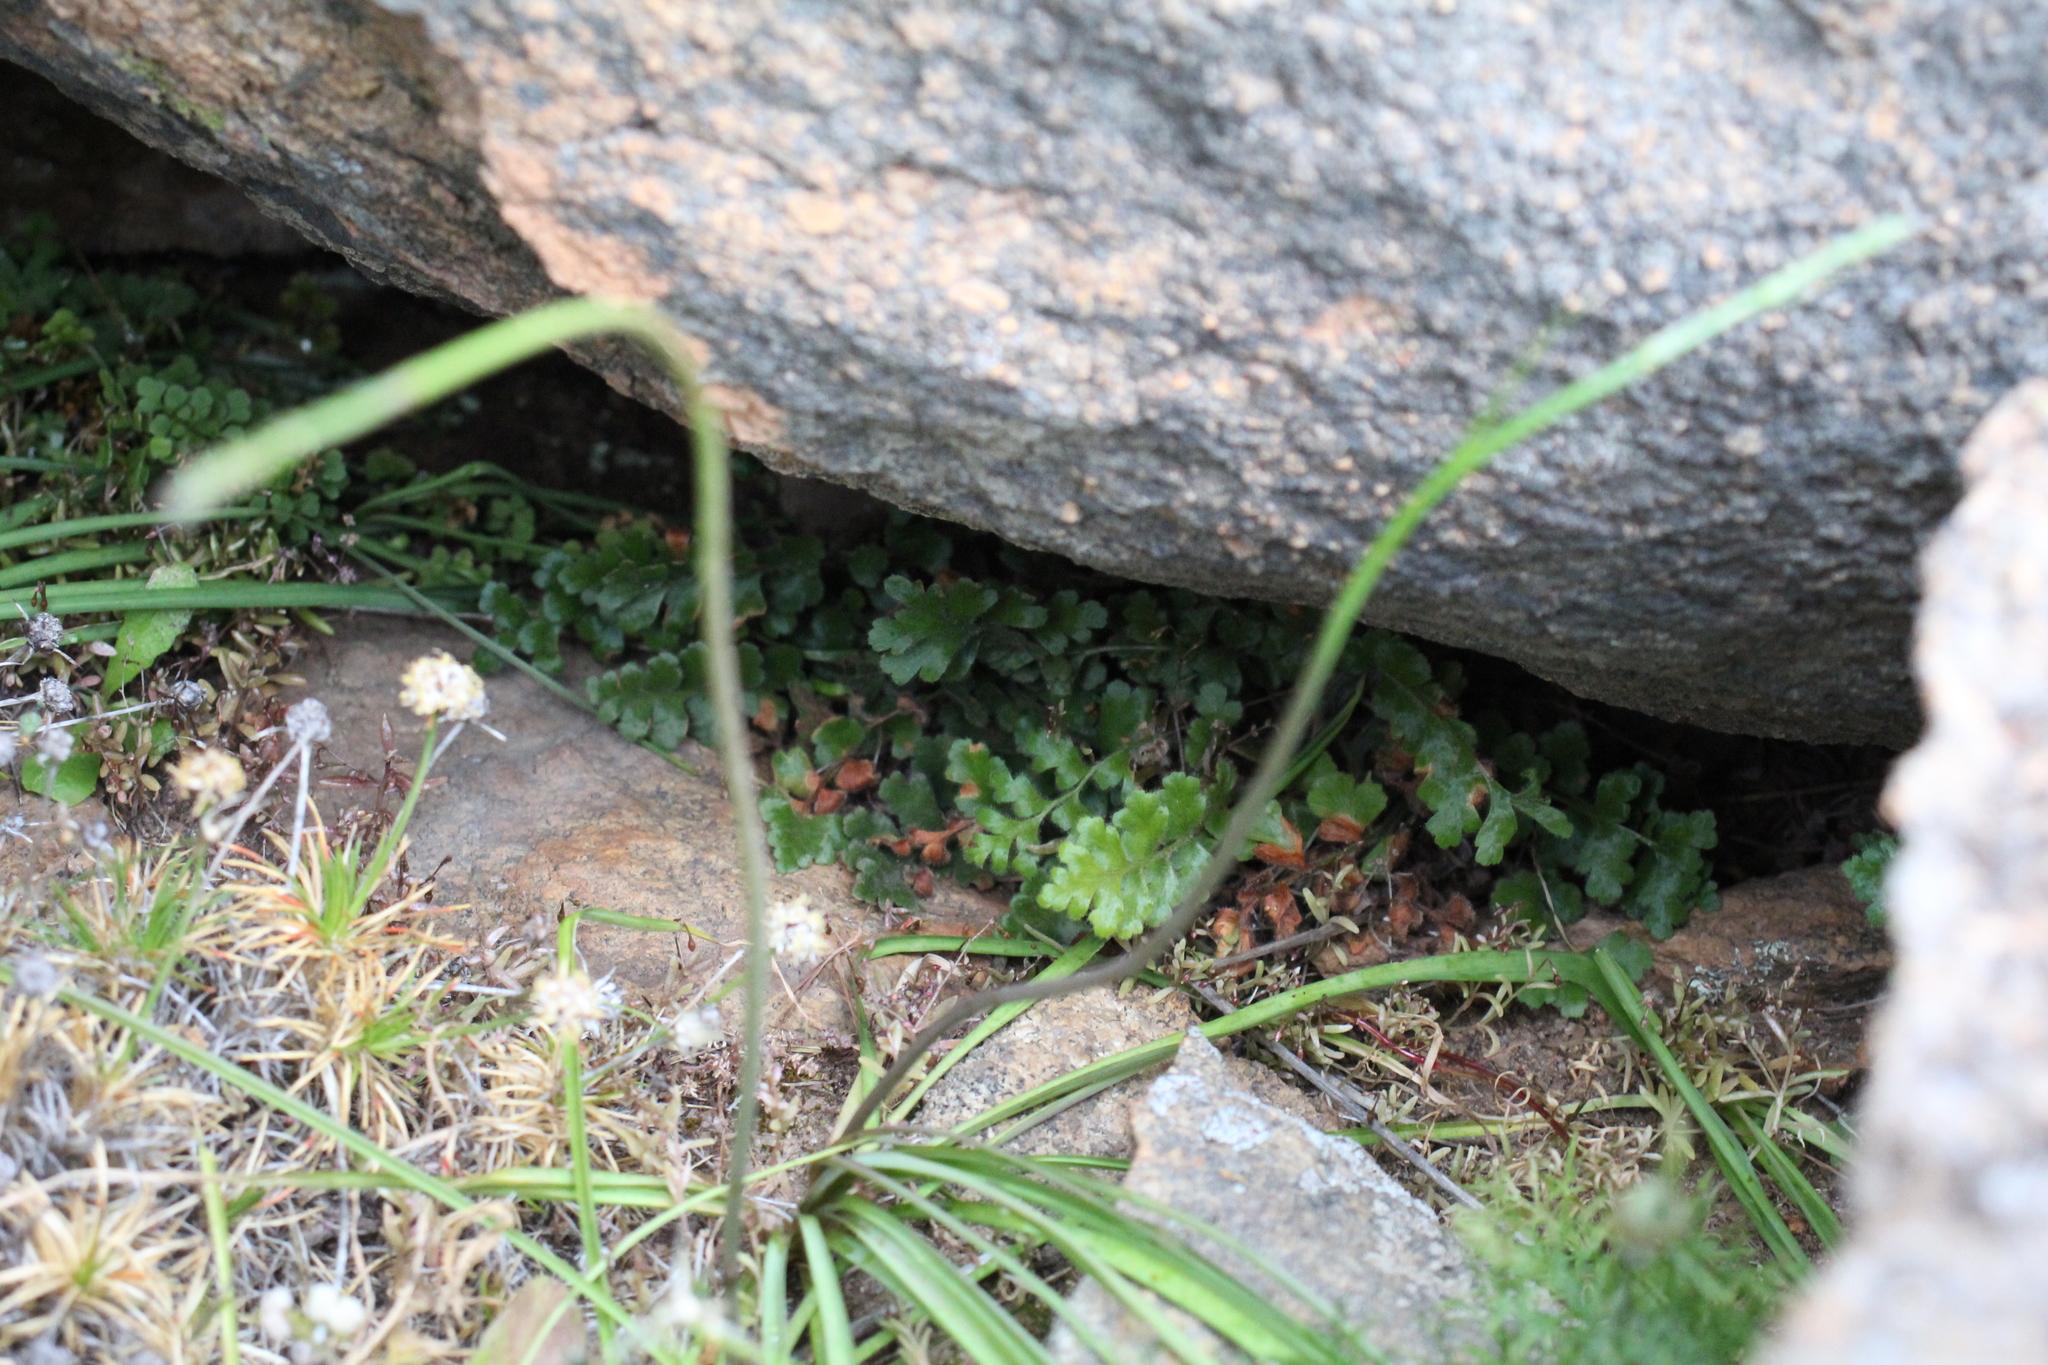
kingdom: Plantae
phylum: Tracheophyta
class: Polypodiopsida
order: Polypodiales
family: Aspleniaceae
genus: Asplenium
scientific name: Asplenium subglandulosum
